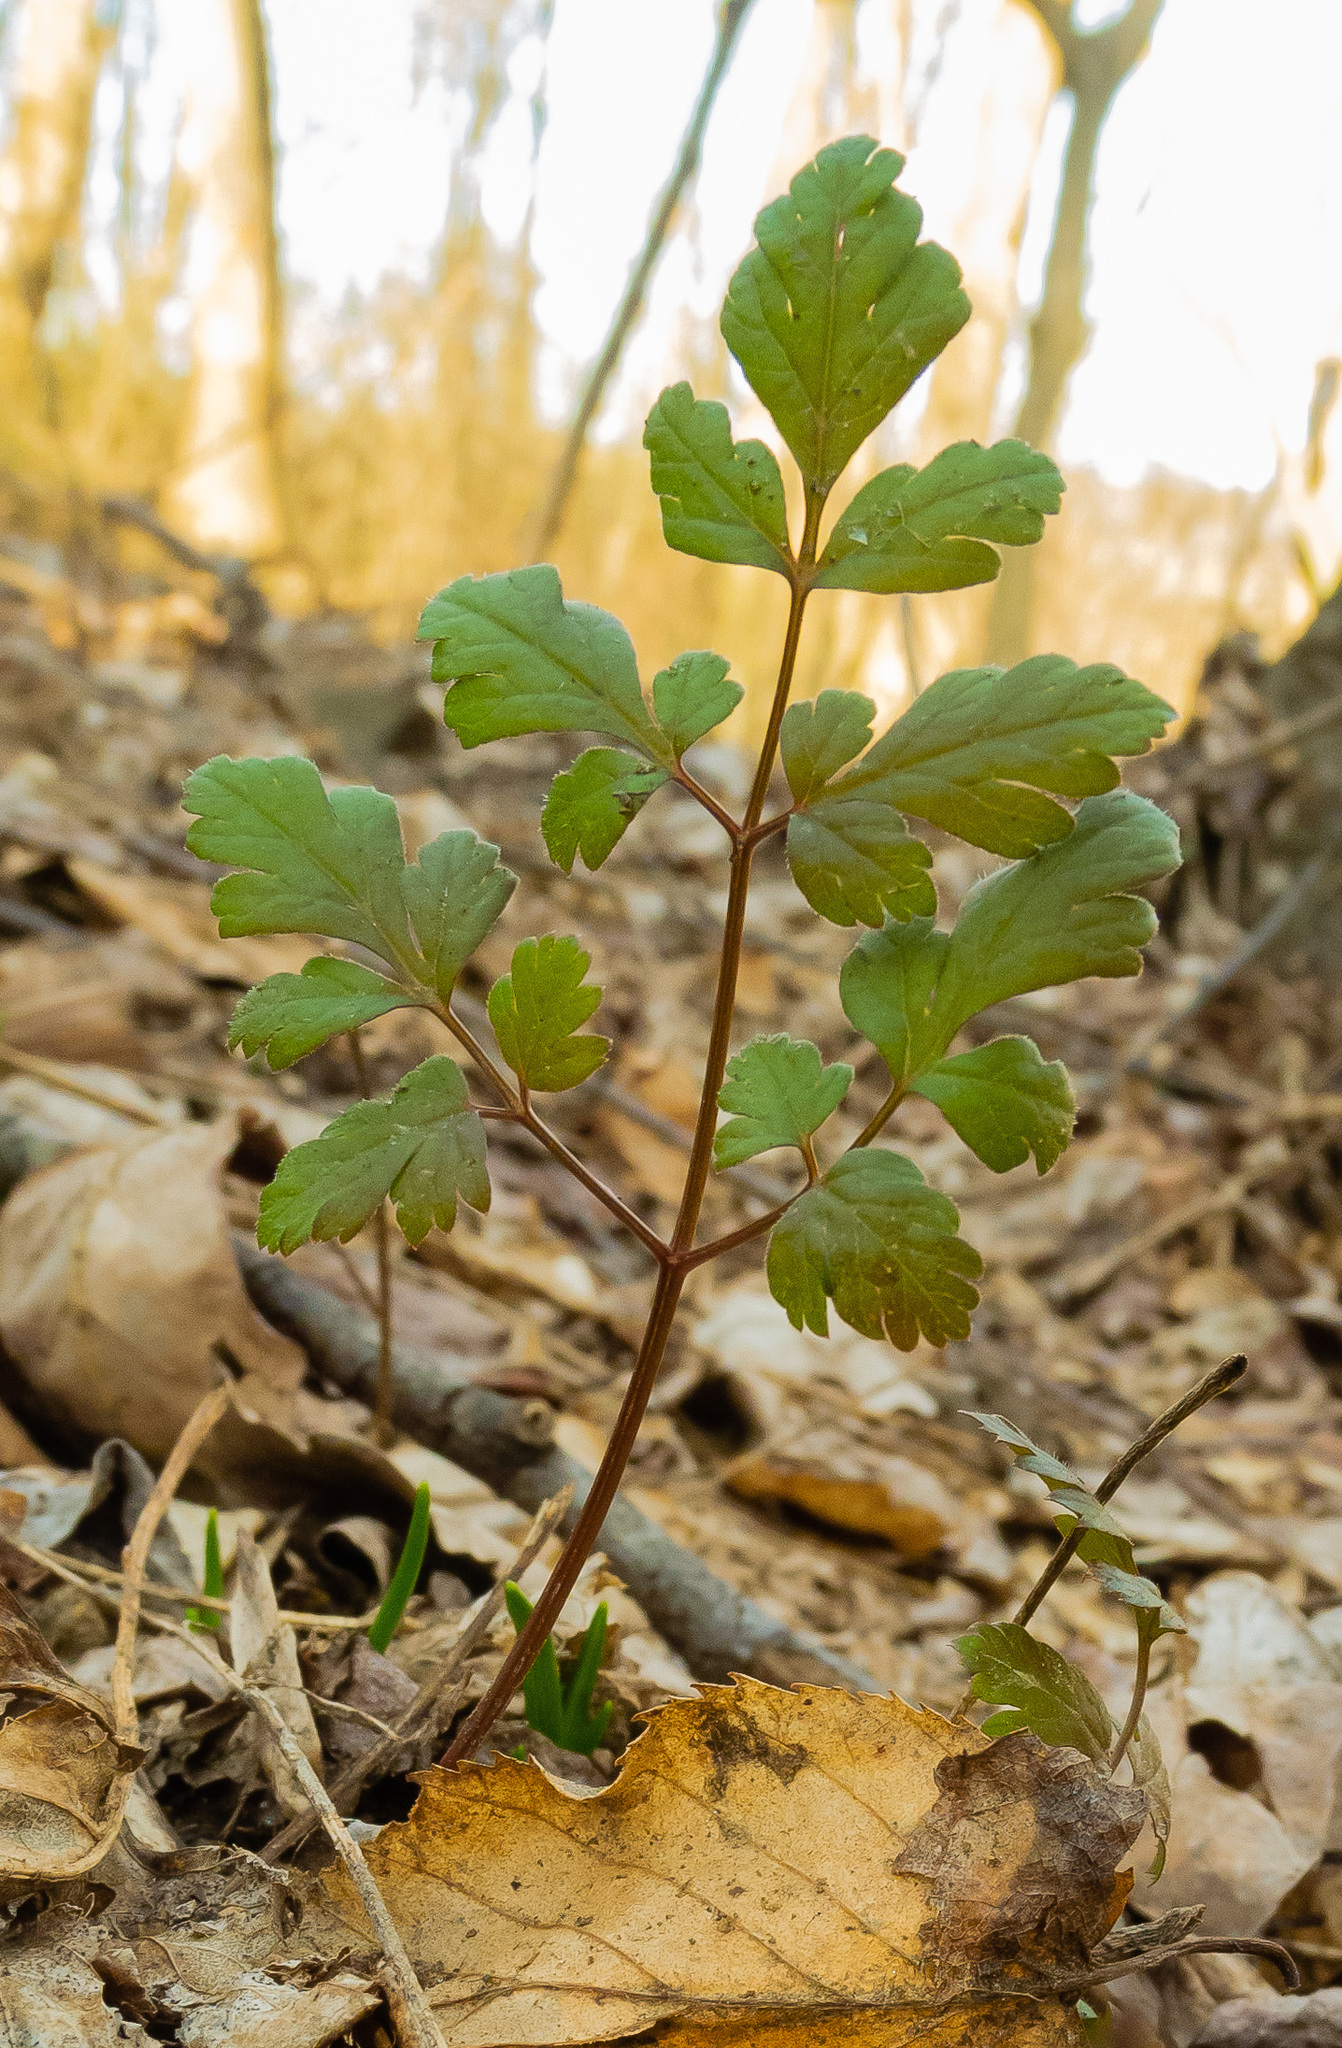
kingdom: Plantae
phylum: Tracheophyta
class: Magnoliopsida
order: Apiales
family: Apiaceae
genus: Osmorhiza
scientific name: Osmorhiza
